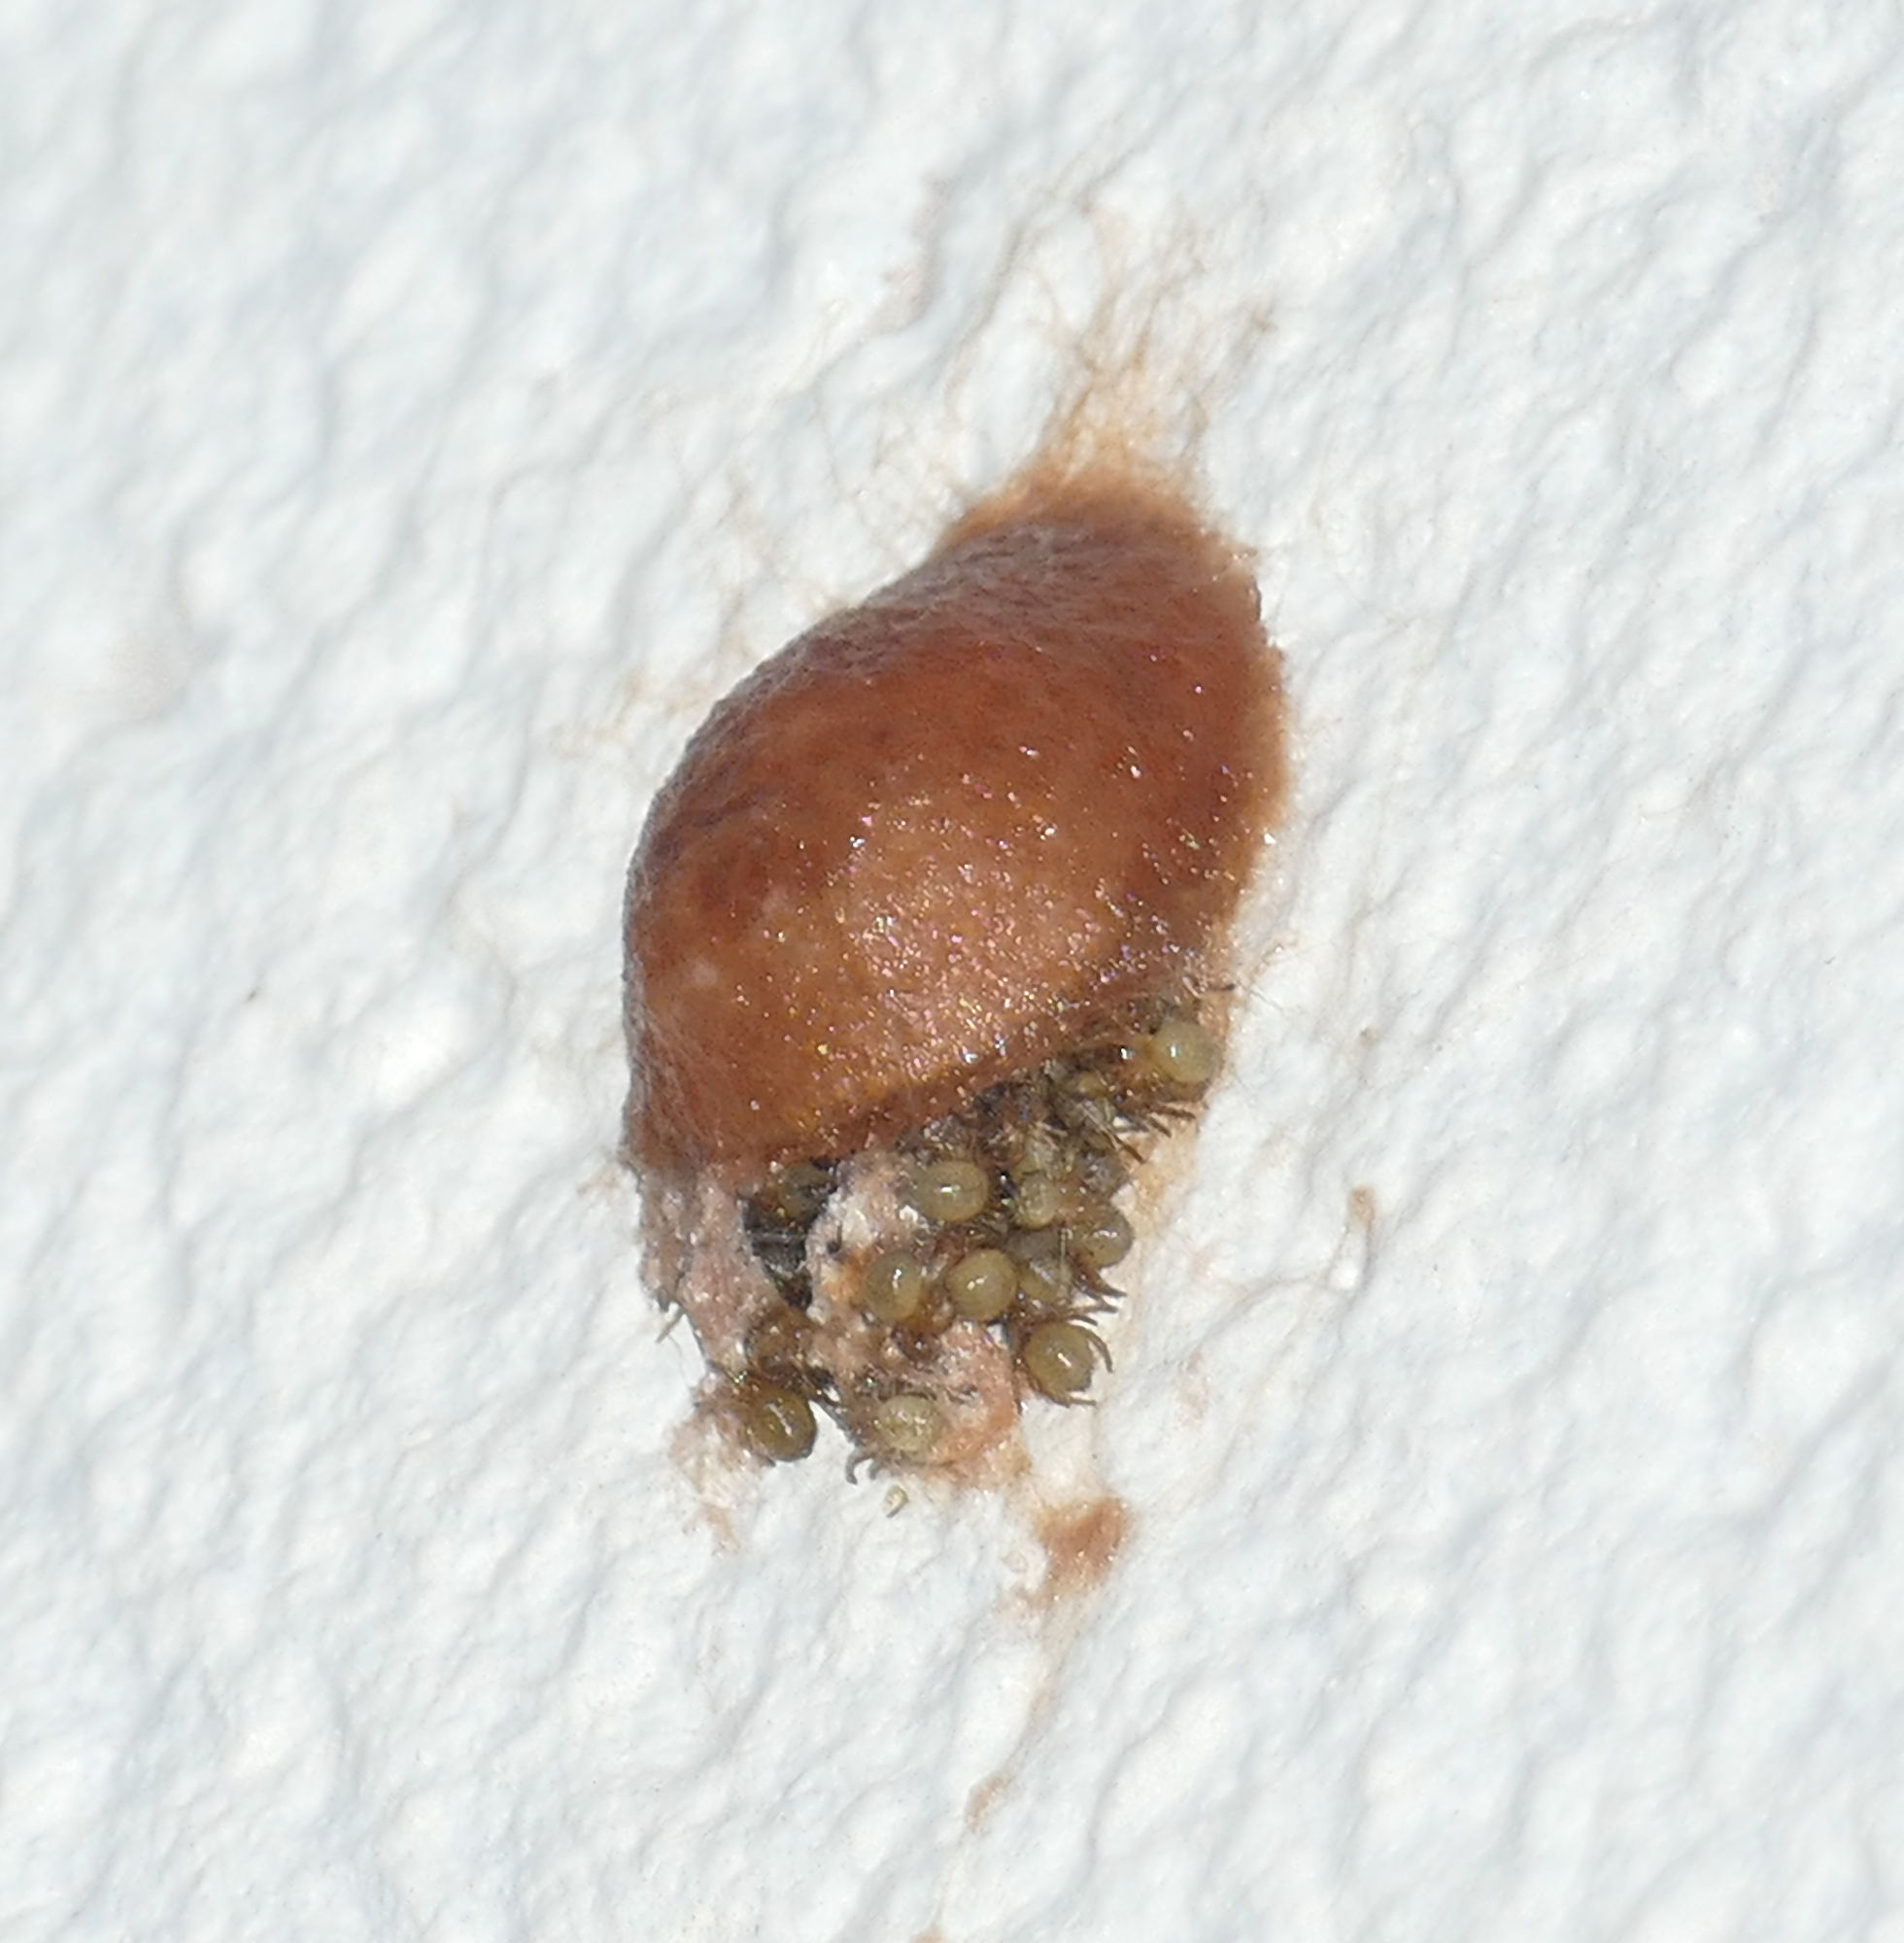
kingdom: Animalia
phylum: Arthropoda
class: Arachnida
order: Araneae
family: Araneidae
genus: Metazygia
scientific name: Metazygia zilloides
